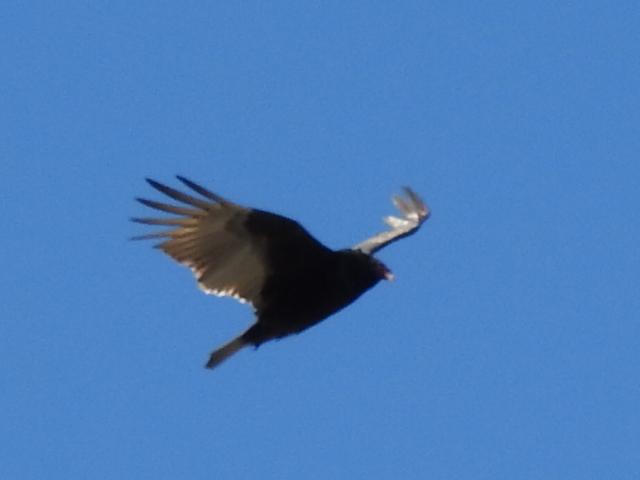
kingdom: Animalia
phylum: Chordata
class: Aves
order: Accipitriformes
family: Cathartidae
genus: Cathartes
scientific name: Cathartes aura
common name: Turkey vulture
